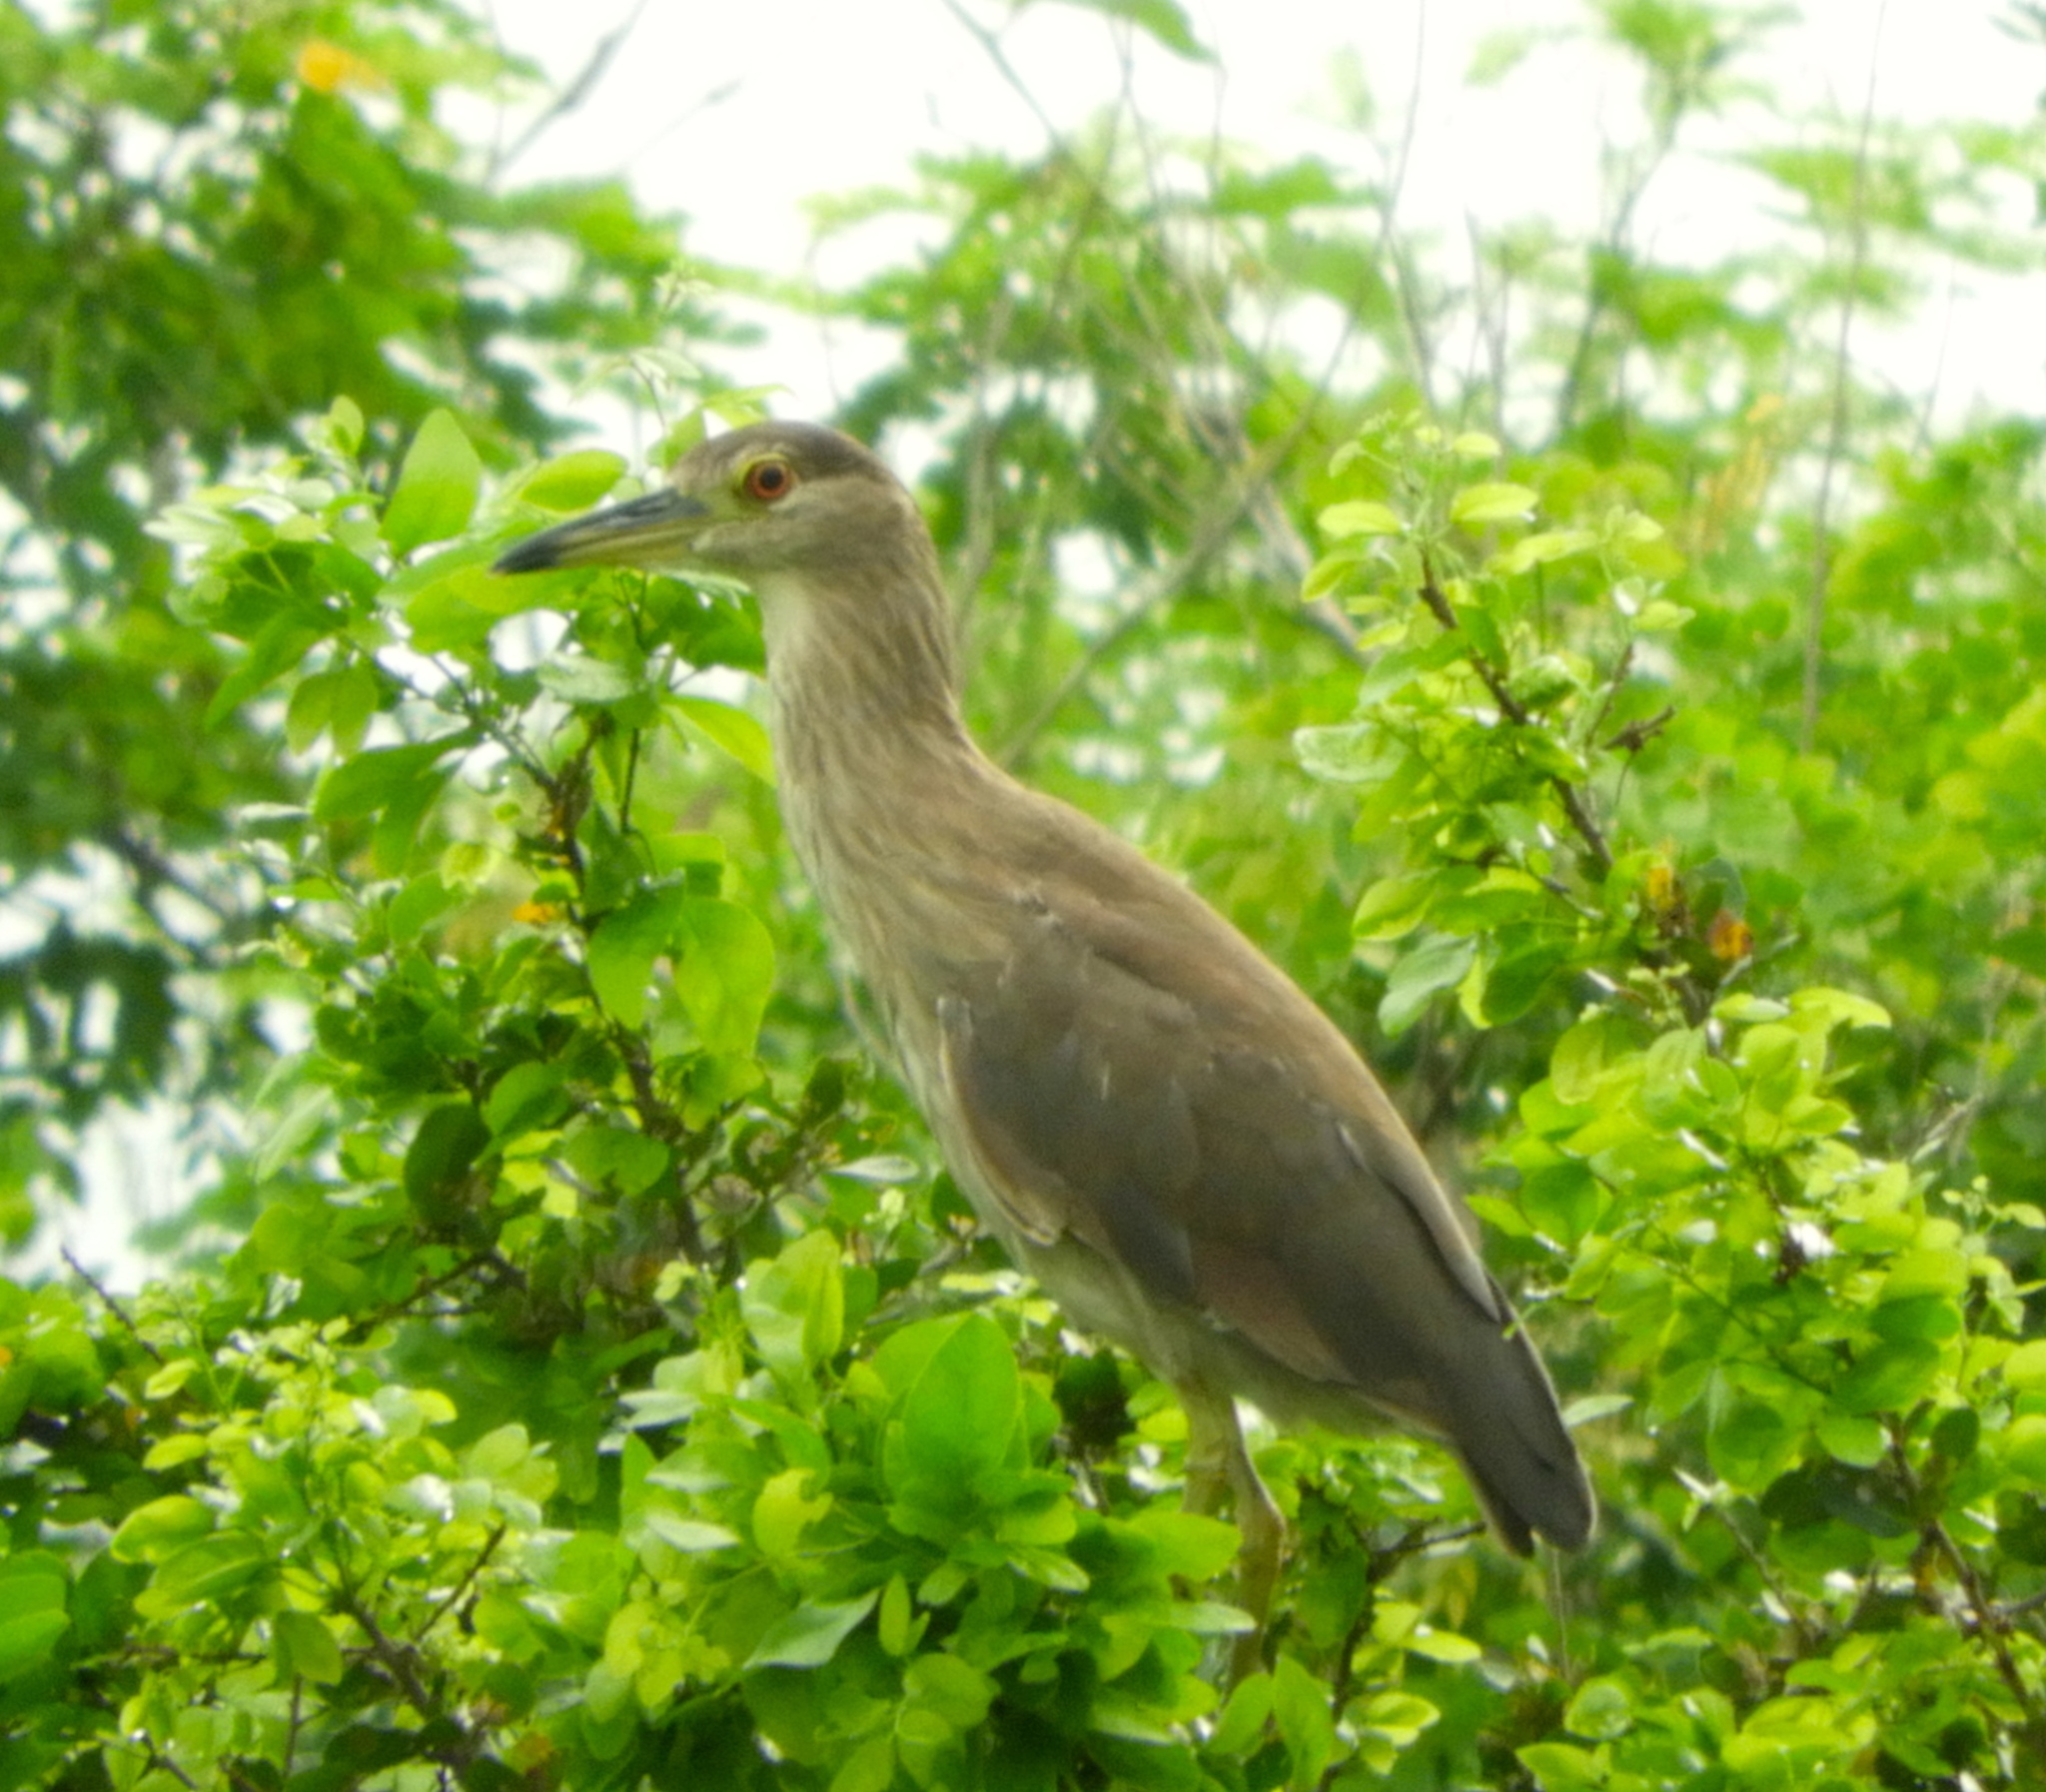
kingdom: Animalia
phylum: Chordata
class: Aves
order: Pelecaniformes
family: Ardeidae
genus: Nycticorax
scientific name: Nycticorax nycticorax
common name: Black-crowned night heron
